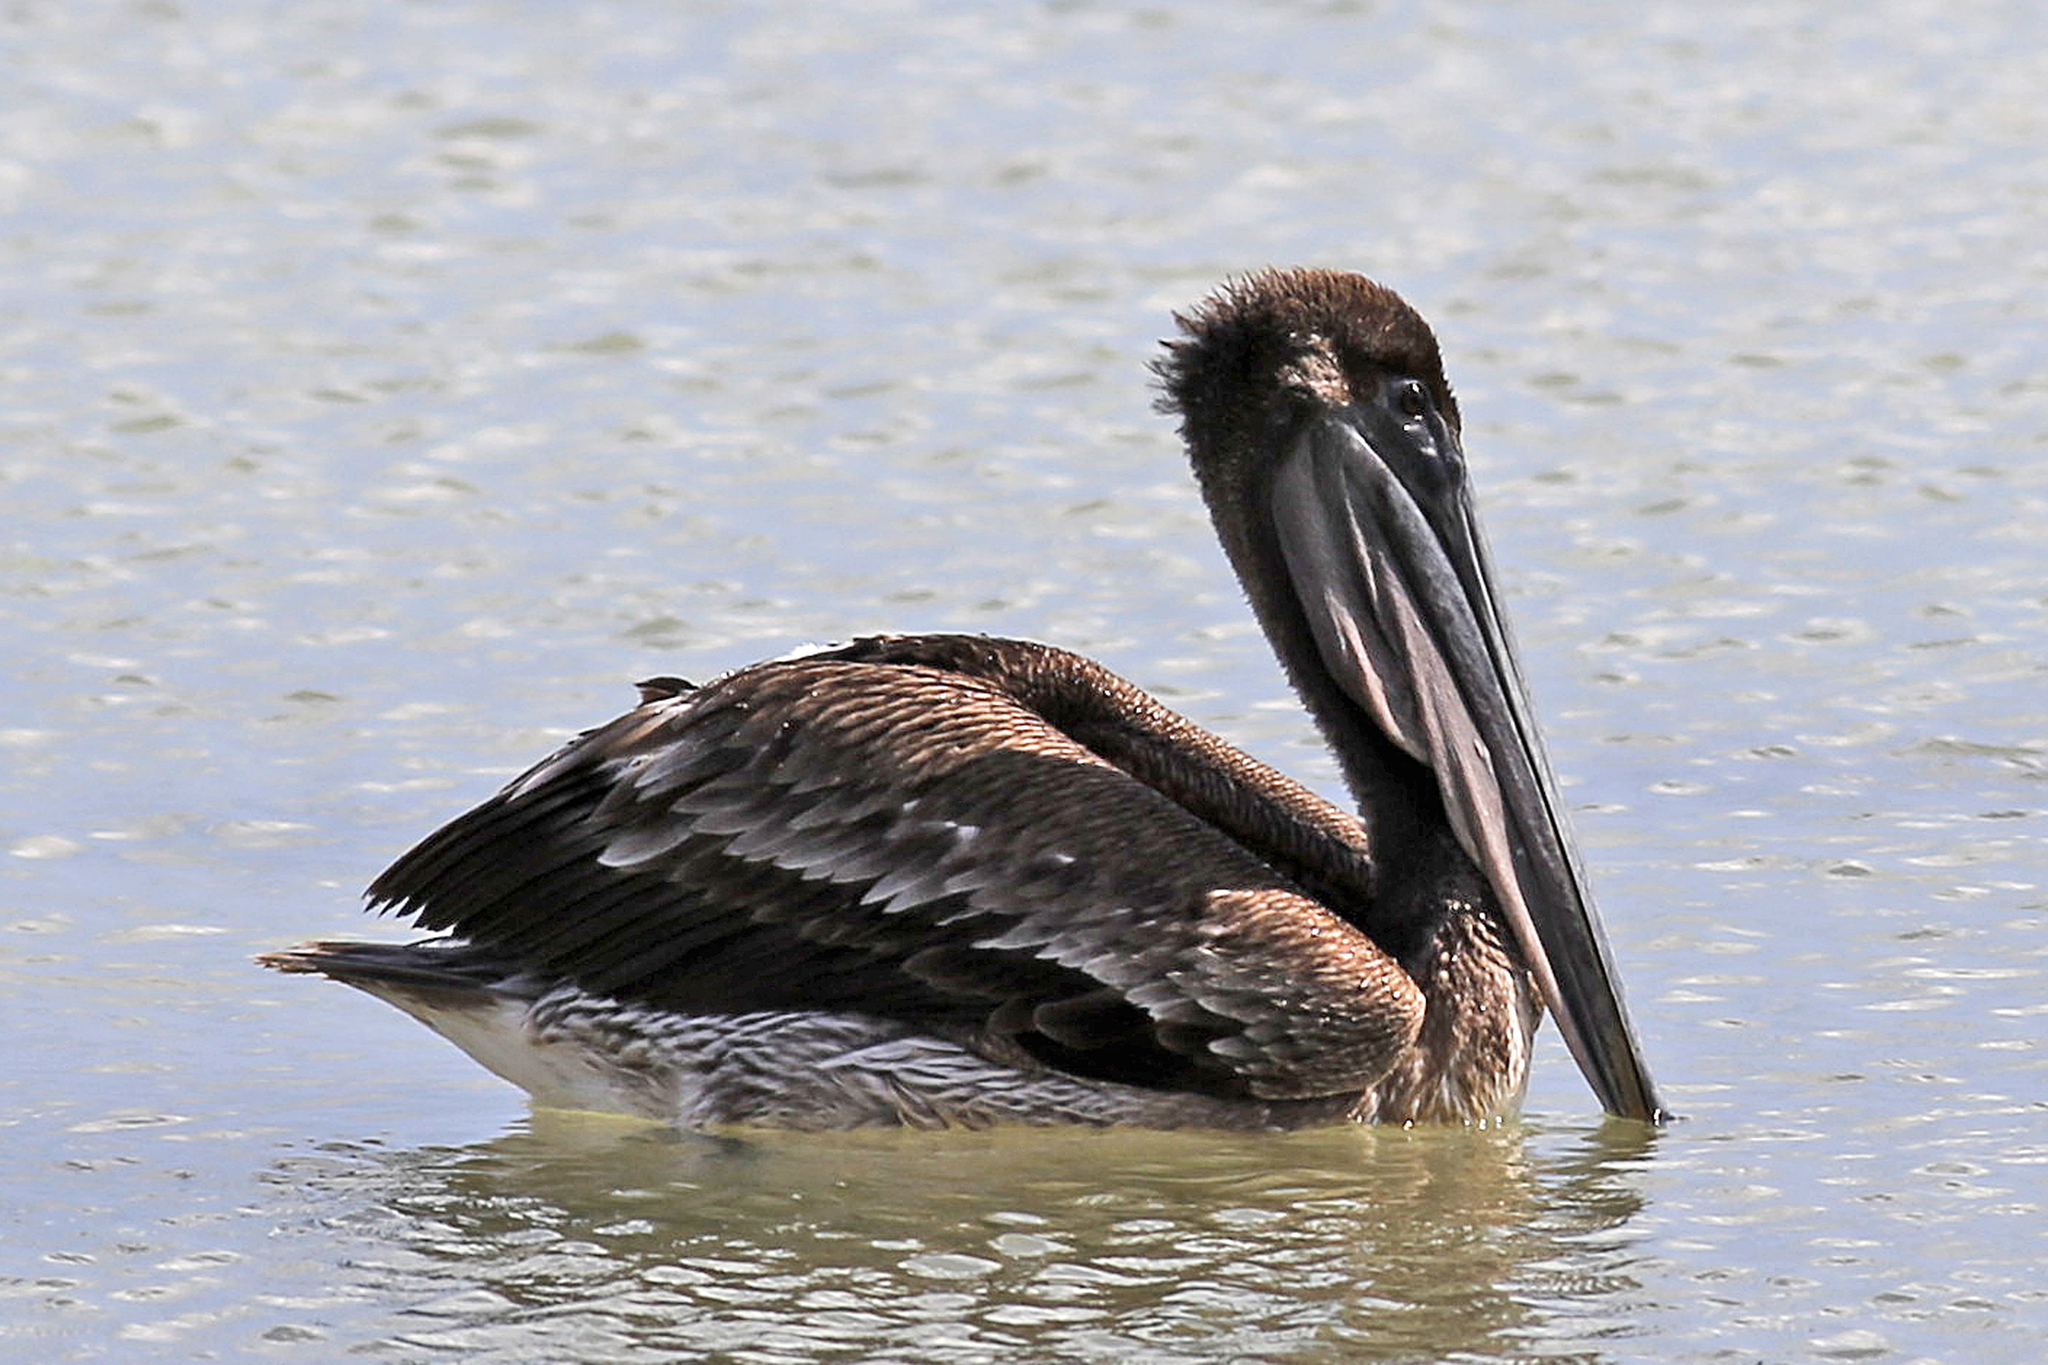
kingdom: Animalia
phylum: Chordata
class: Aves
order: Pelecaniformes
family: Pelecanidae
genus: Pelecanus
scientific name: Pelecanus occidentalis
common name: Brown pelican
